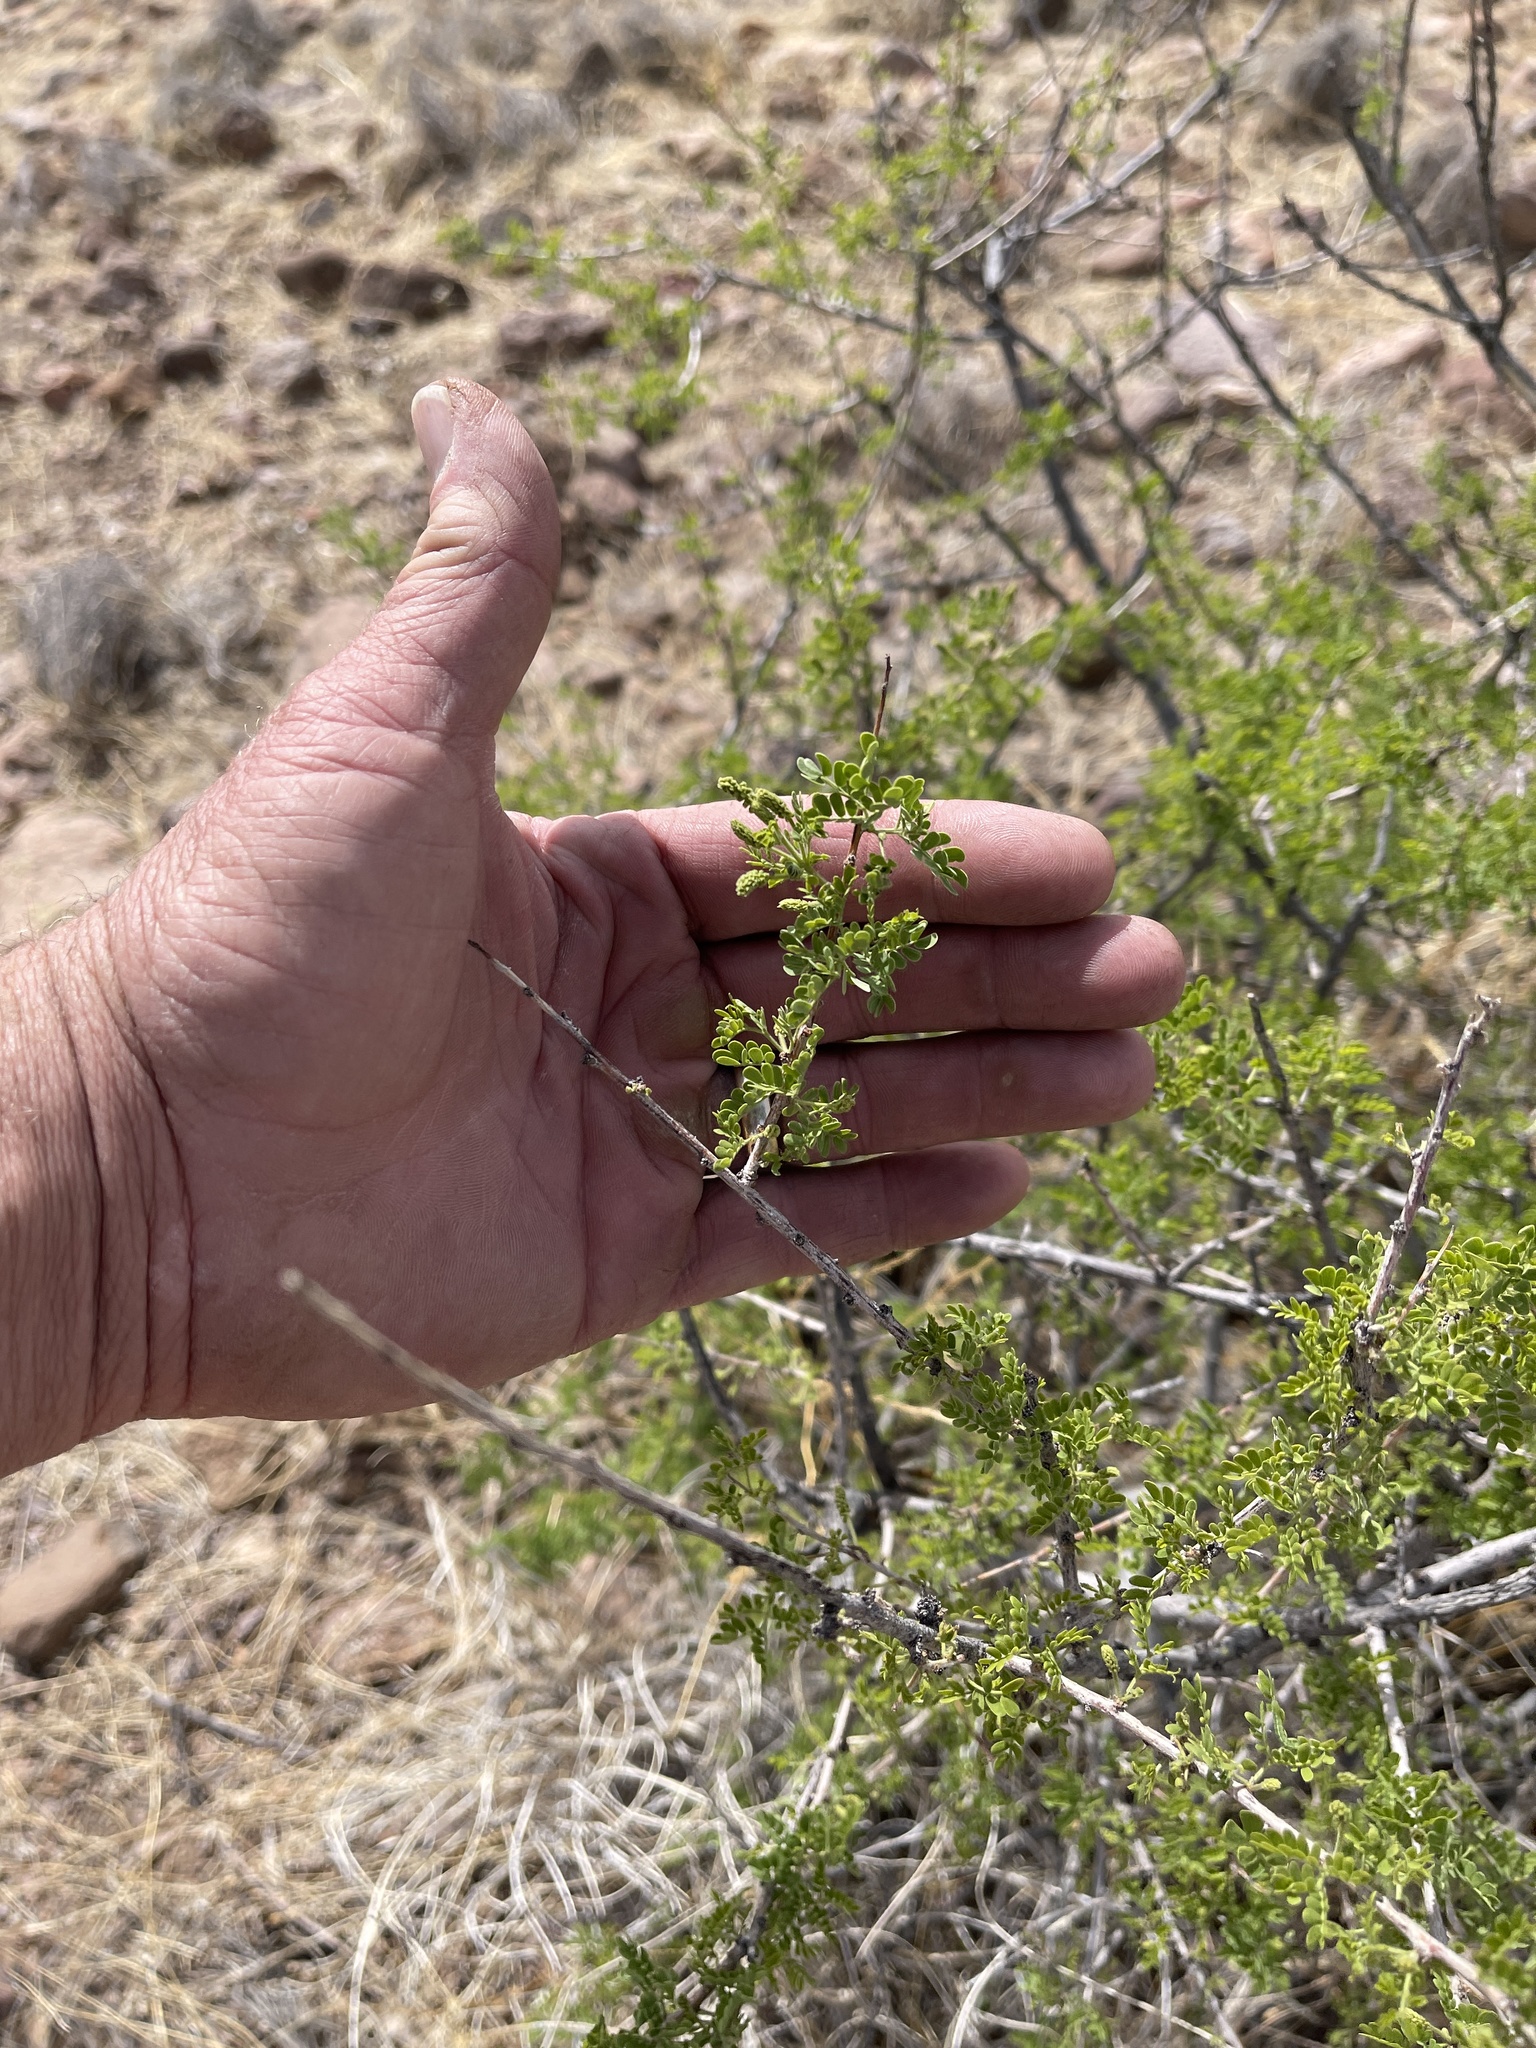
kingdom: Plantae
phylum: Tracheophyta
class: Magnoliopsida
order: Fabales
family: Fabaceae
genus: Senegalia
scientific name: Senegalia greggii
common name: Texas-mimosa
